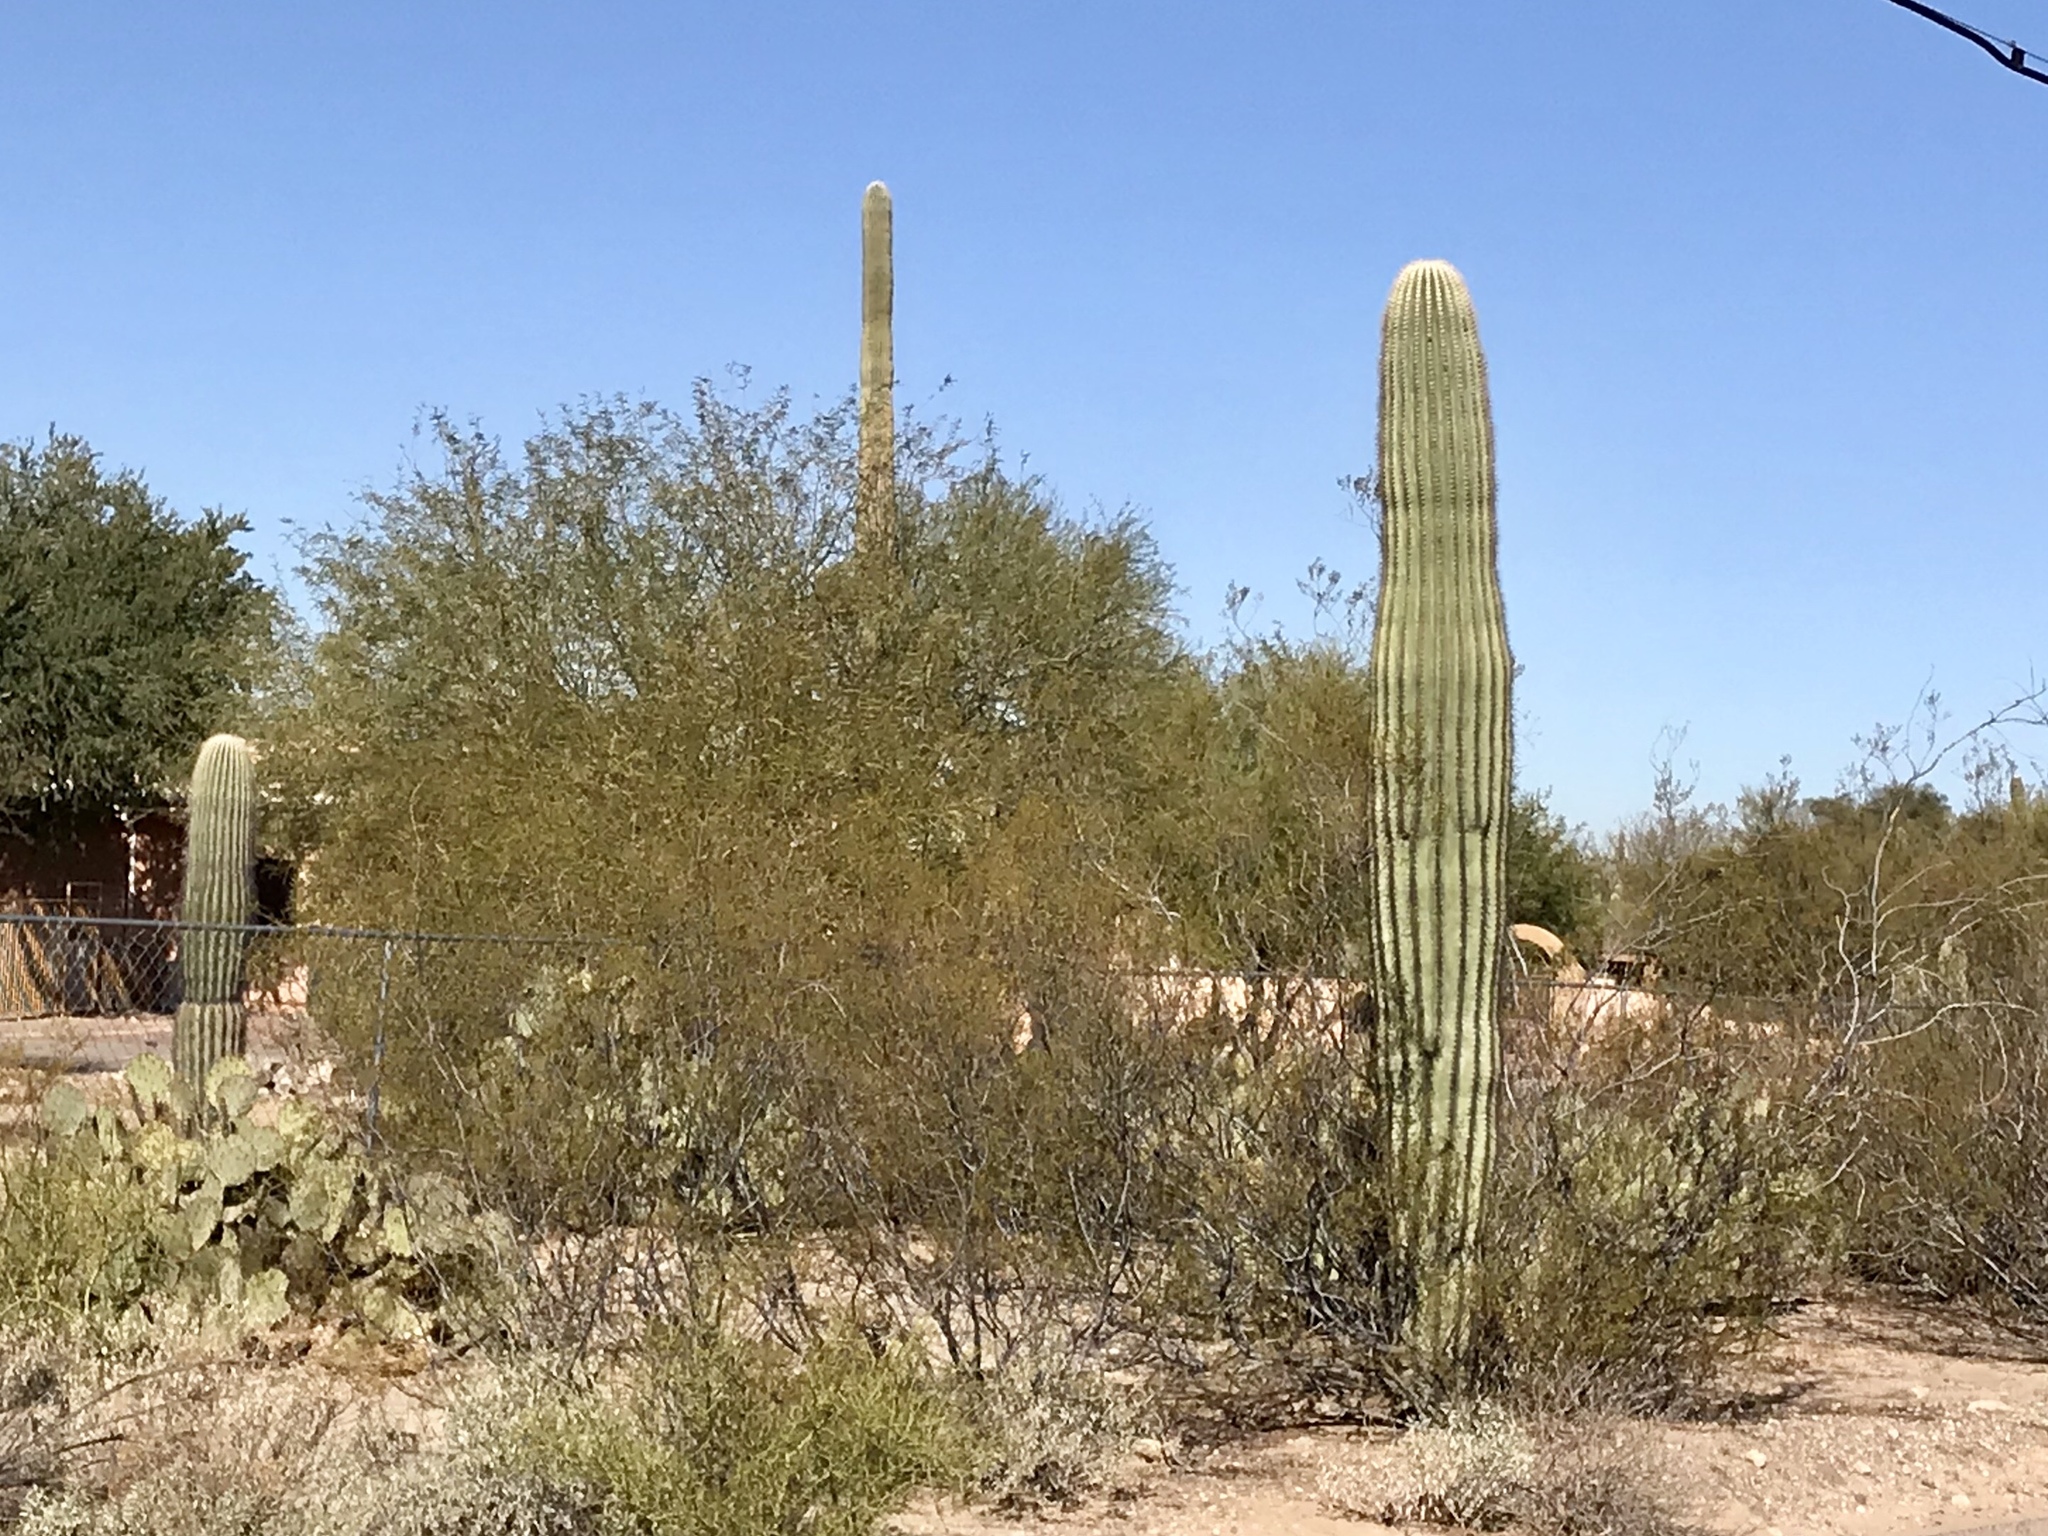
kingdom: Plantae
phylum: Tracheophyta
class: Magnoliopsida
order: Caryophyllales
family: Cactaceae
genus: Carnegiea
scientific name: Carnegiea gigantea
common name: Saguaro
